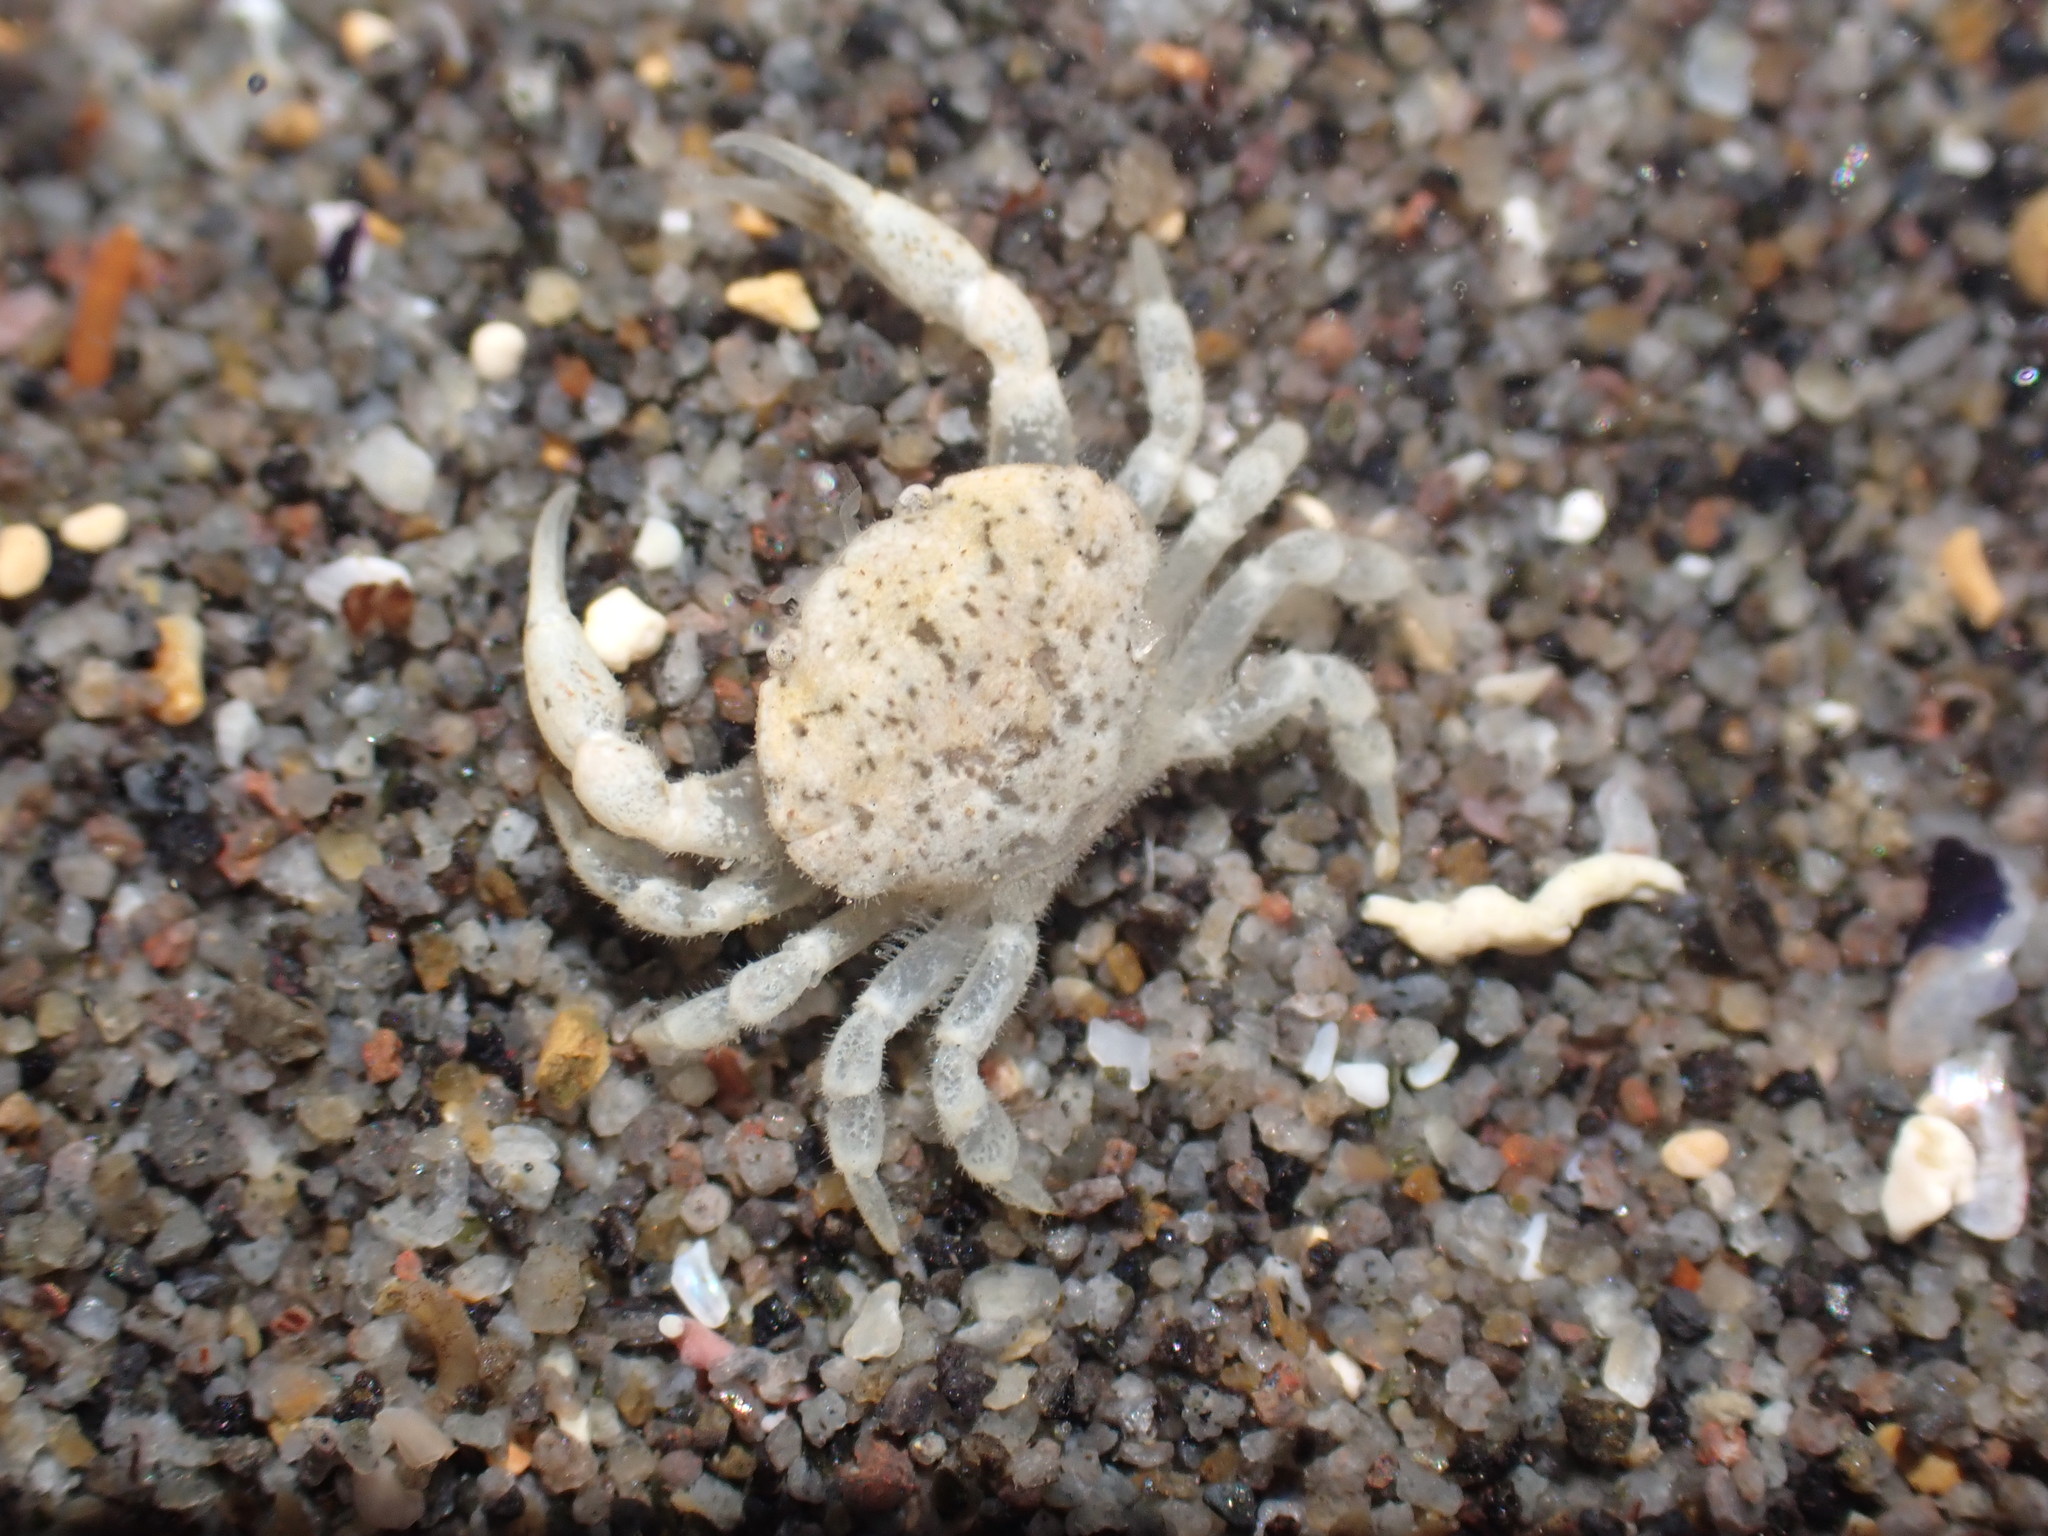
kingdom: Animalia
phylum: Arthropoda
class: Malacostraca
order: Decapoda
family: Heteroziidae
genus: Heterozius
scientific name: Heterozius rotundifrons
